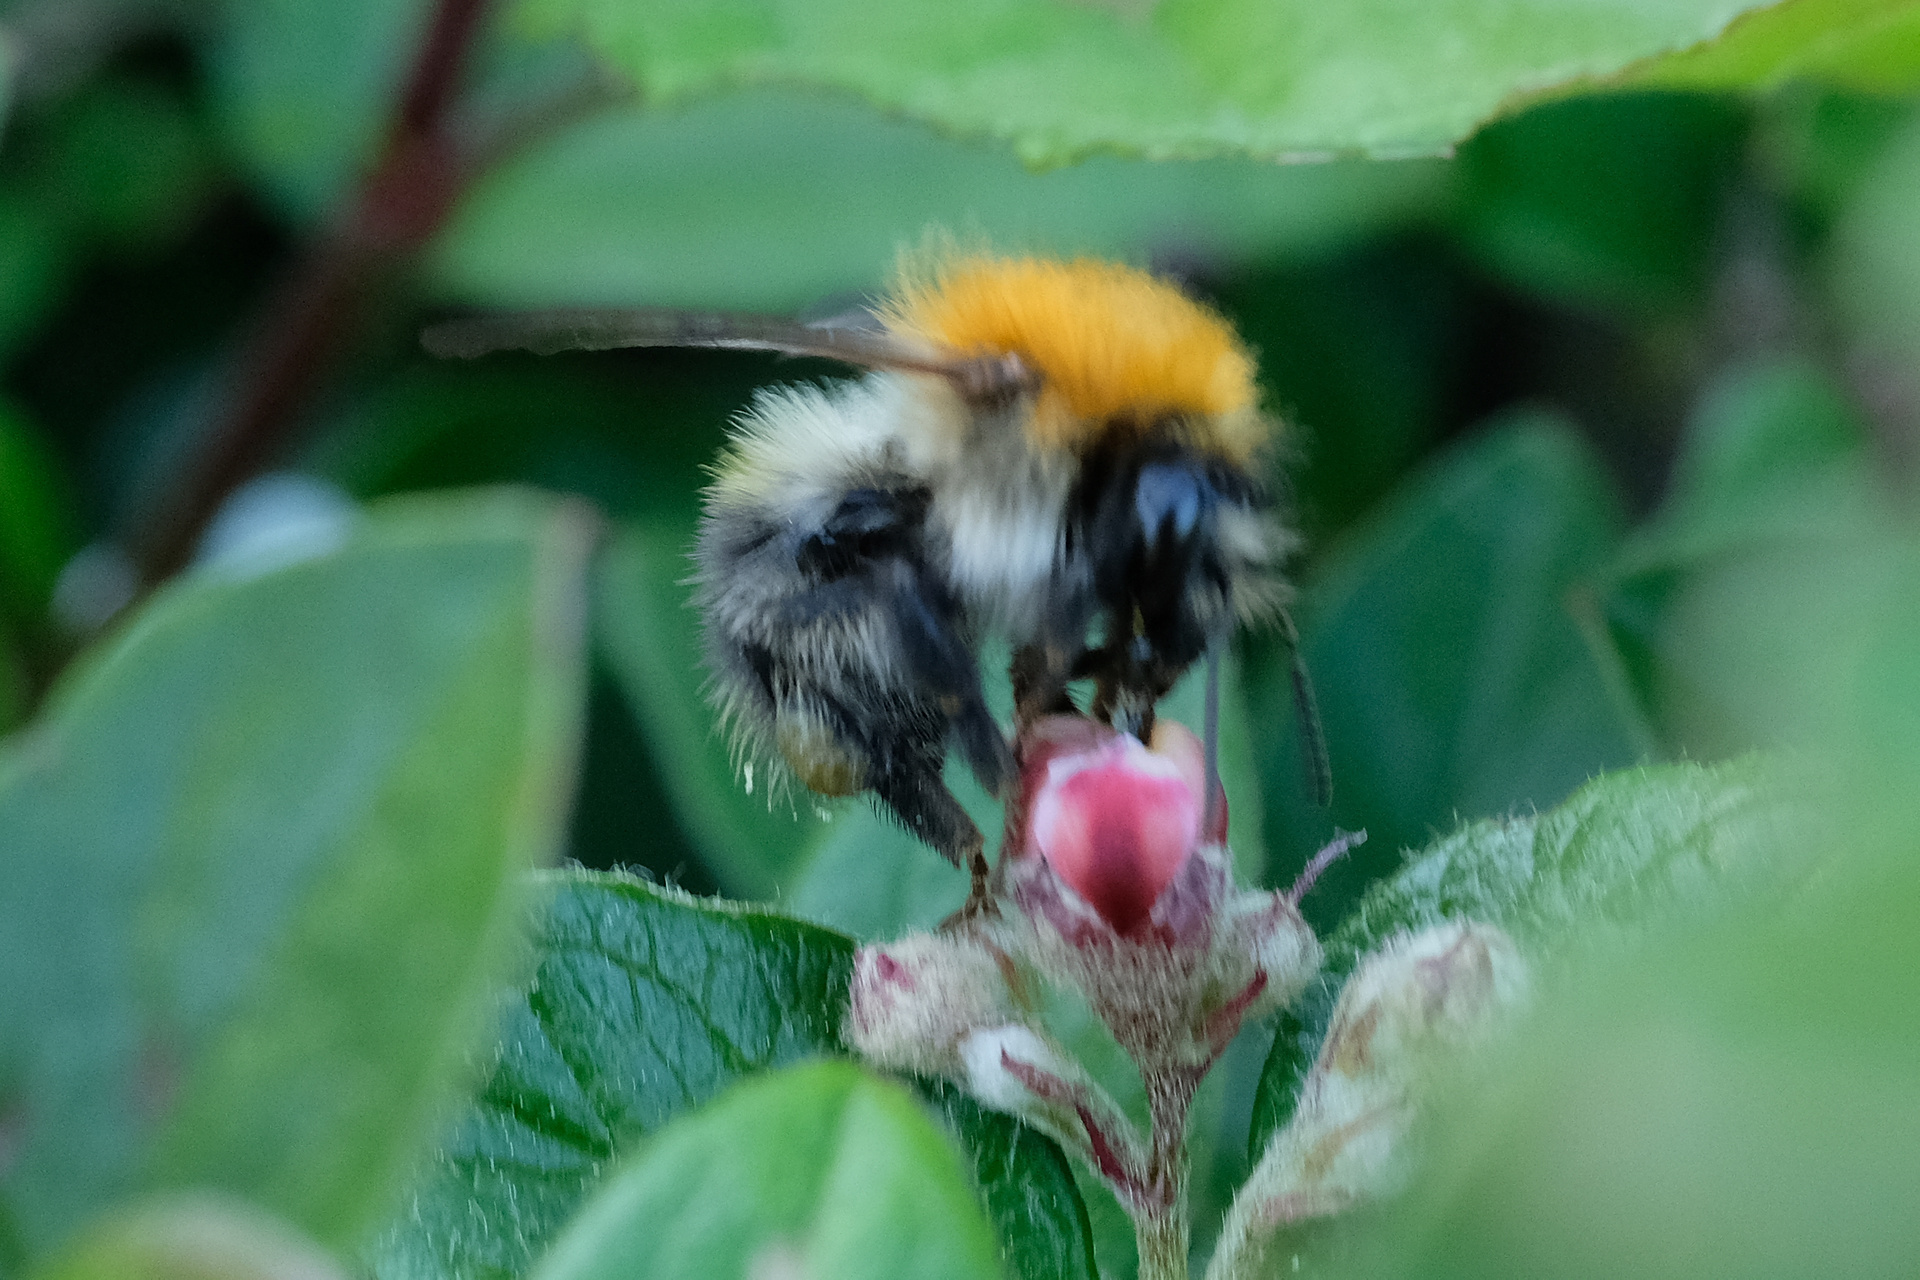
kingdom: Animalia
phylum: Arthropoda
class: Insecta
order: Hymenoptera
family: Apidae
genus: Bombus
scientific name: Bombus pascuorum
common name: Common carder bee
